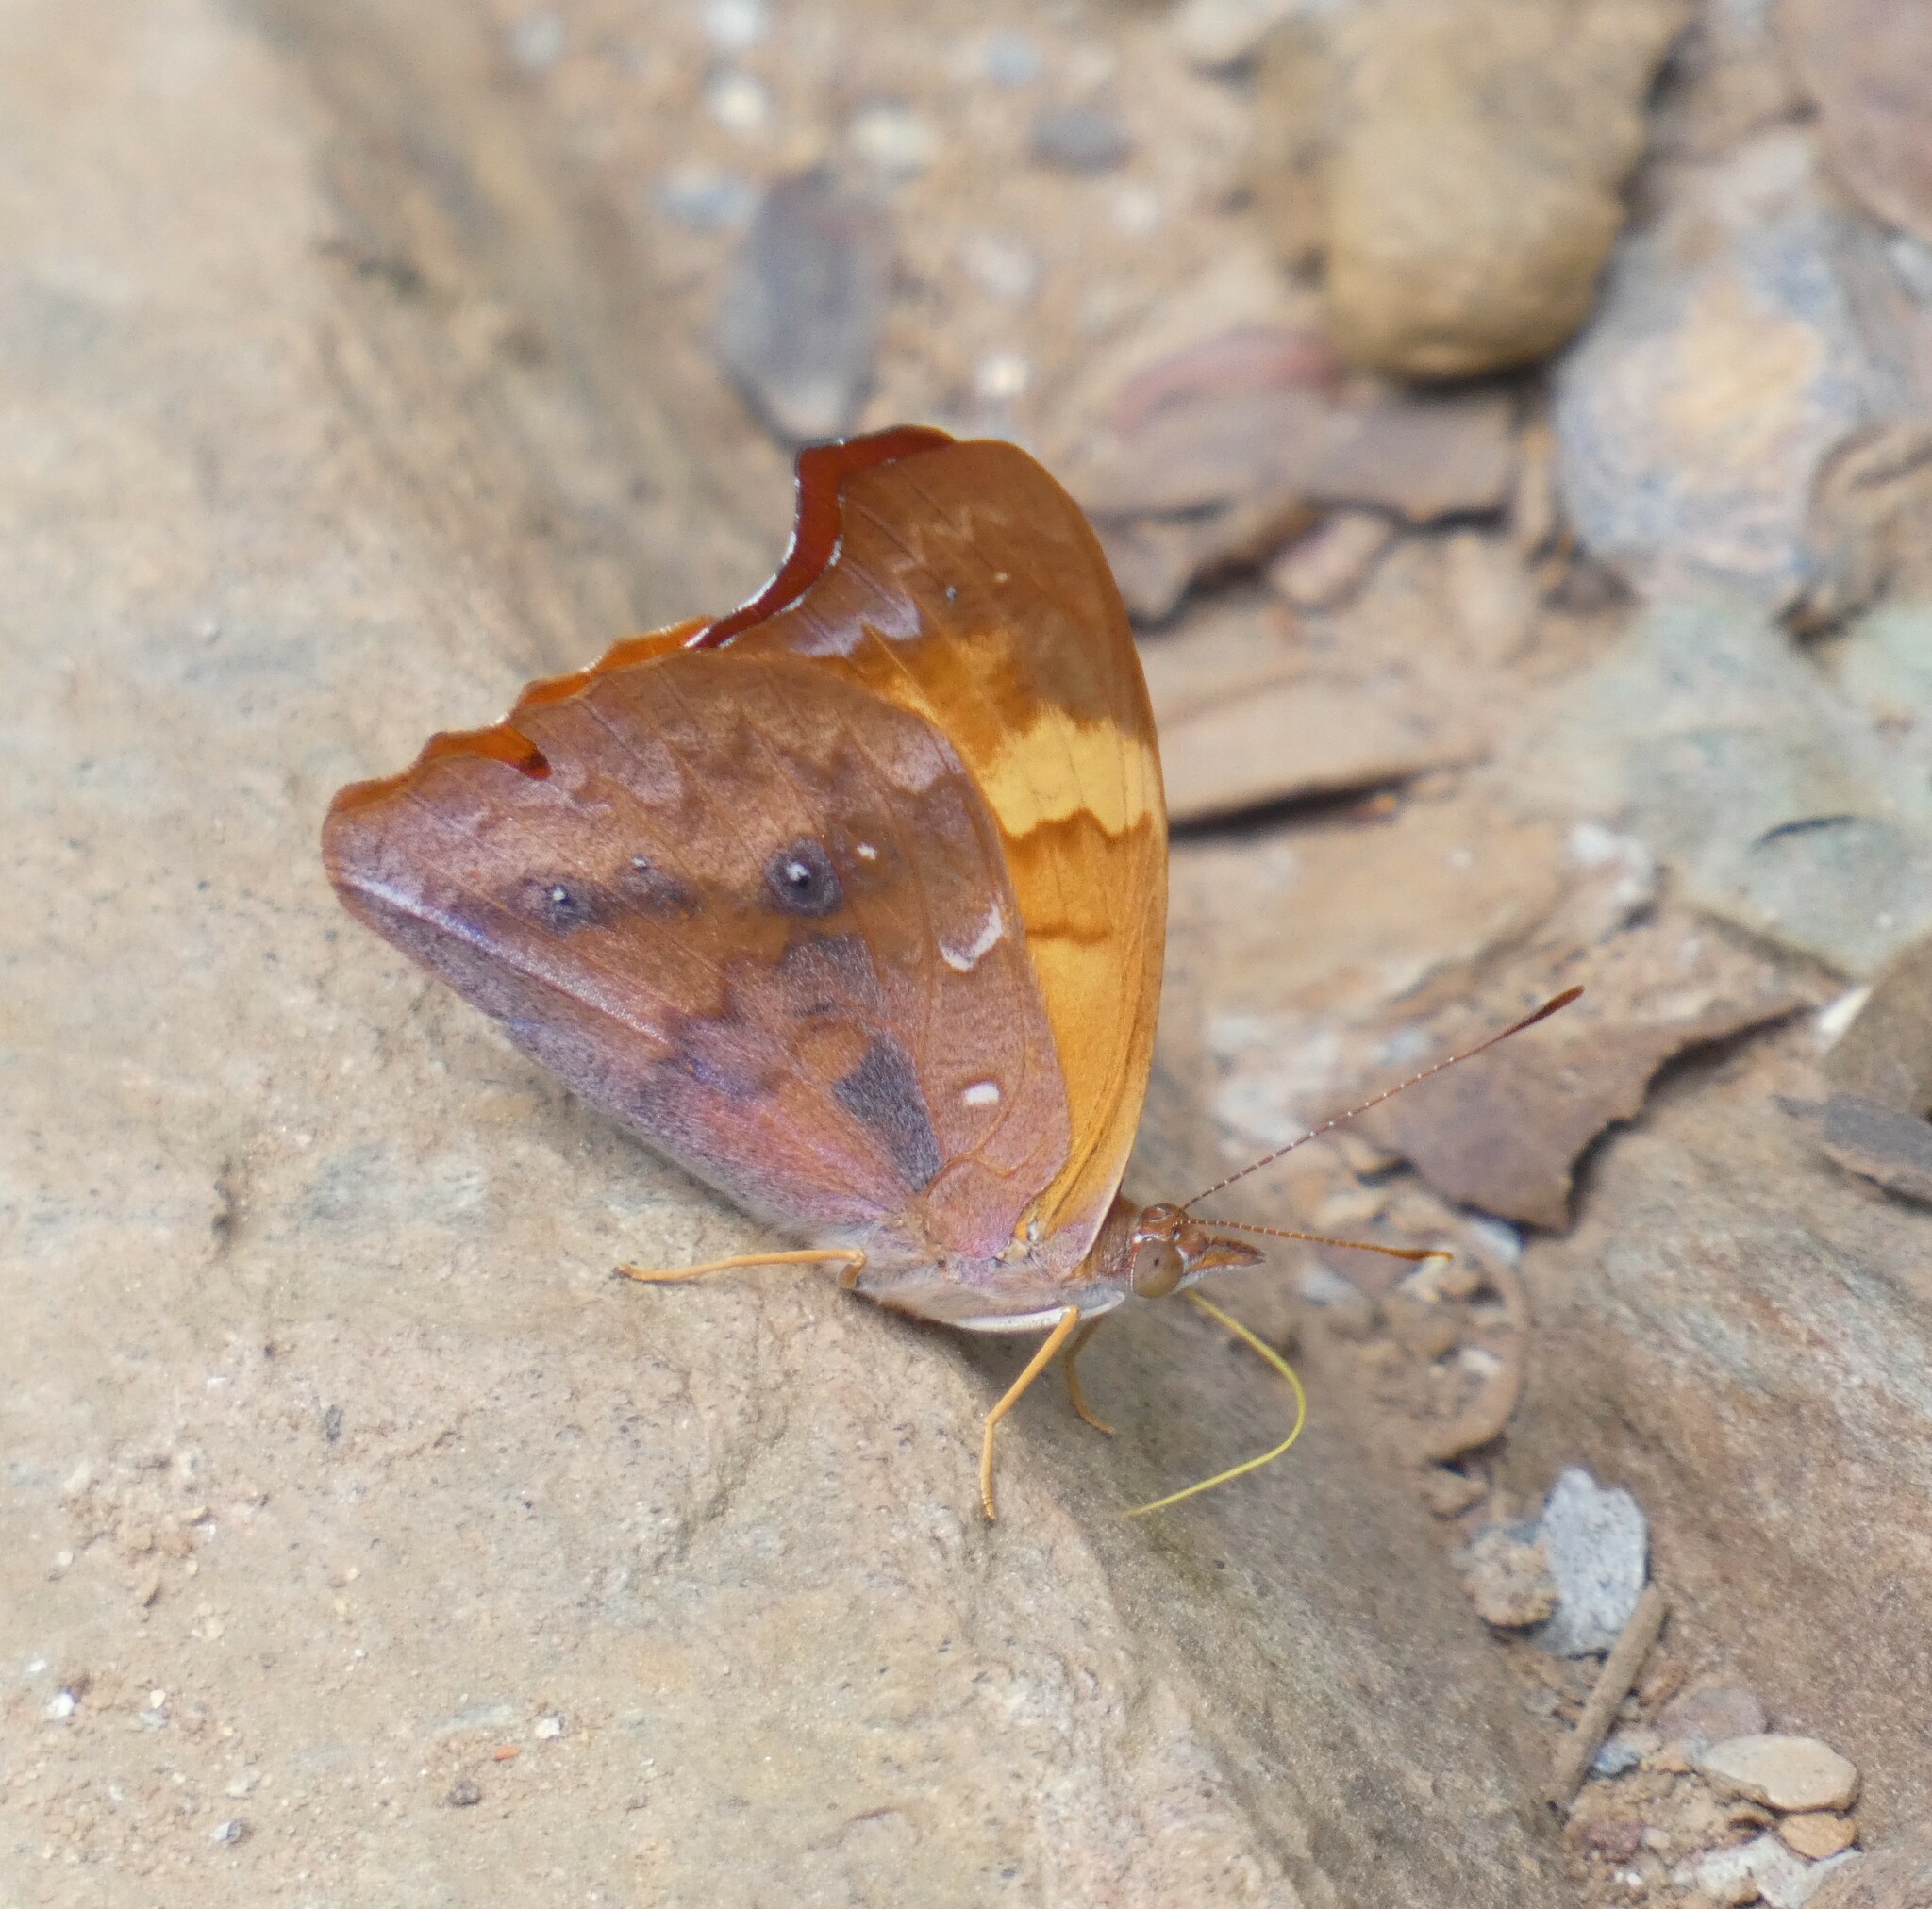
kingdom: Animalia
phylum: Arthropoda
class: Insecta
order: Lepidoptera
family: Nymphalidae
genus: Temenis
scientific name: Temenis laothoe
